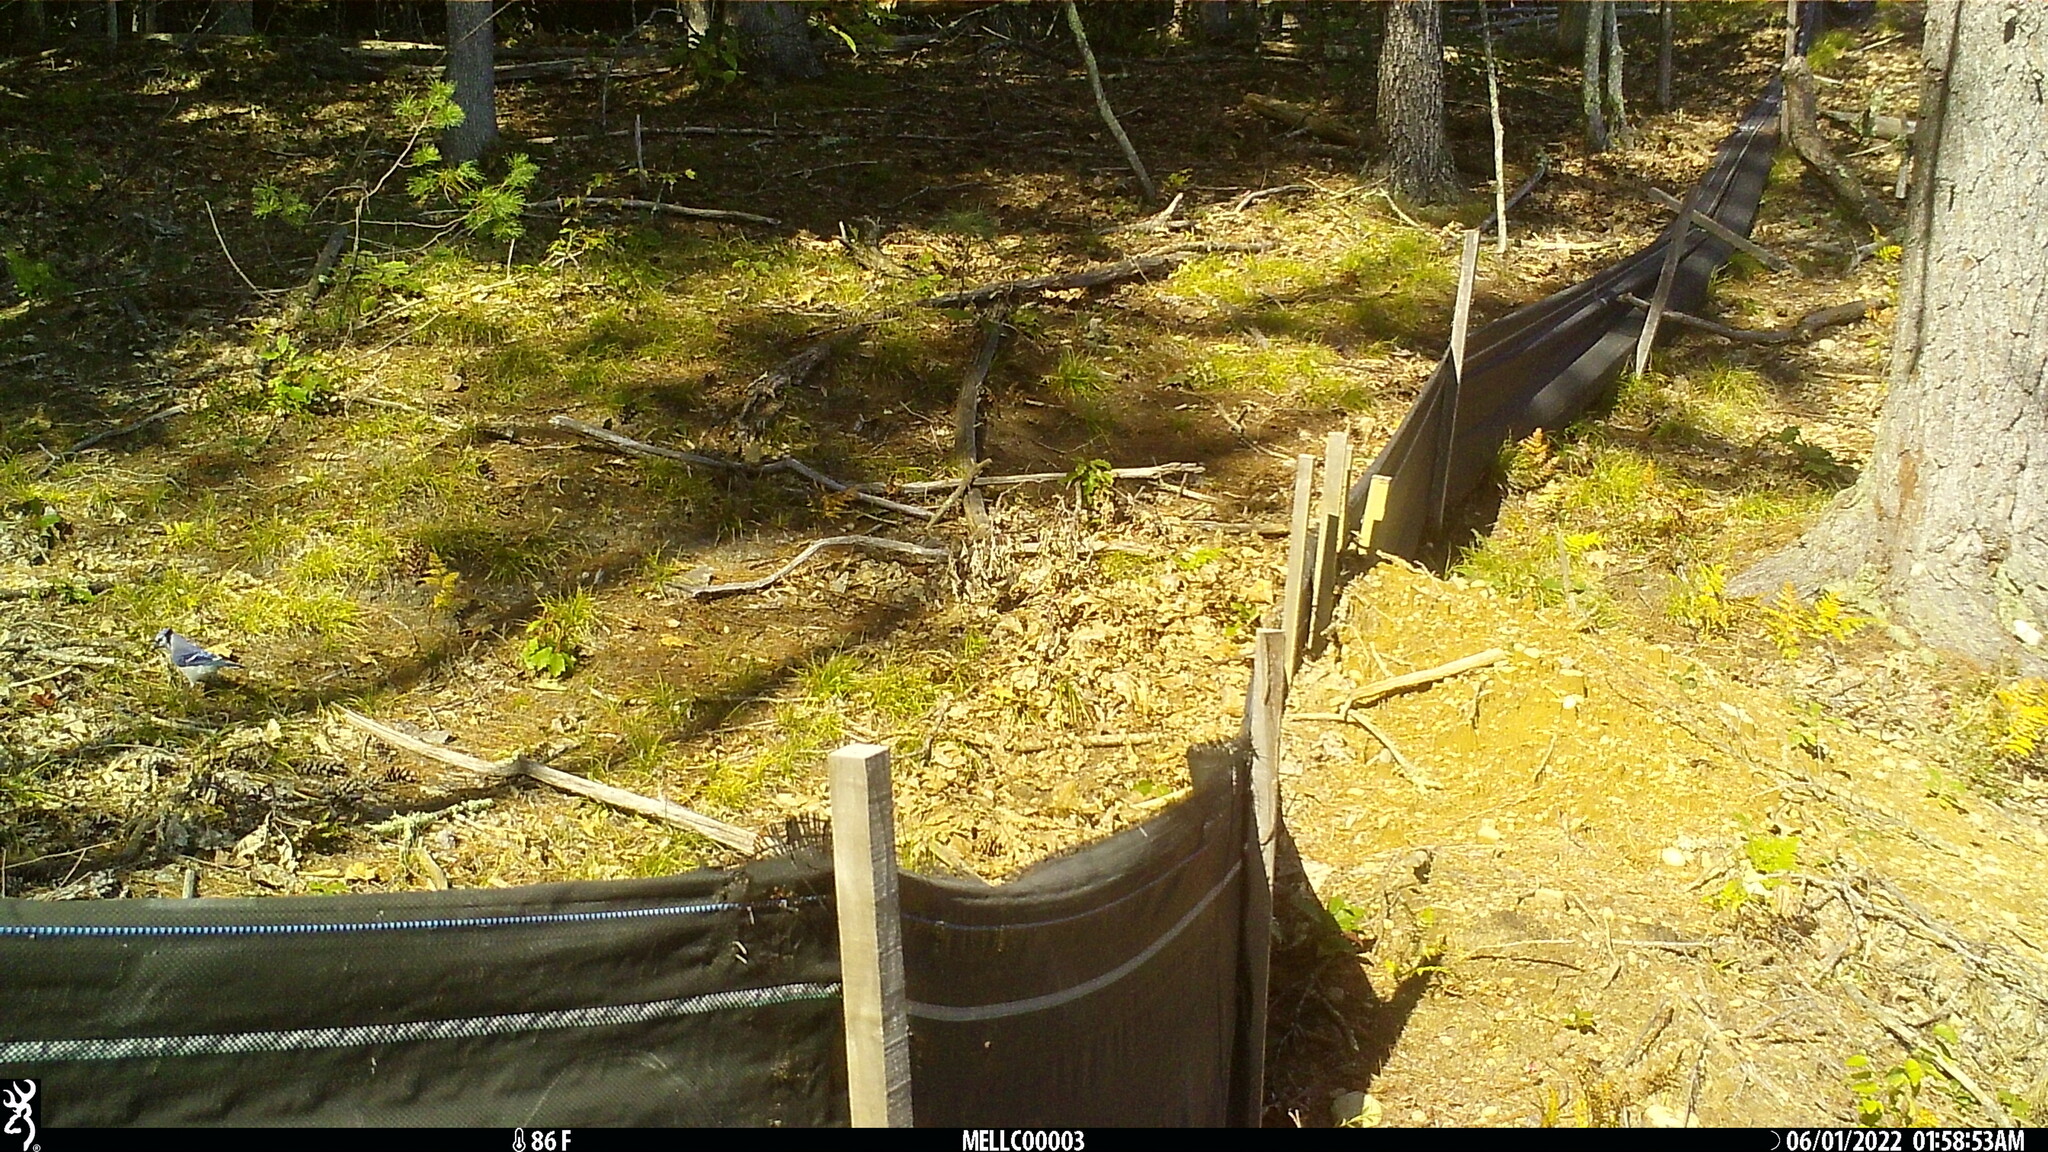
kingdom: Animalia
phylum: Chordata
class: Aves
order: Passeriformes
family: Corvidae
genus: Cyanocitta
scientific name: Cyanocitta cristata
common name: Blue jay
